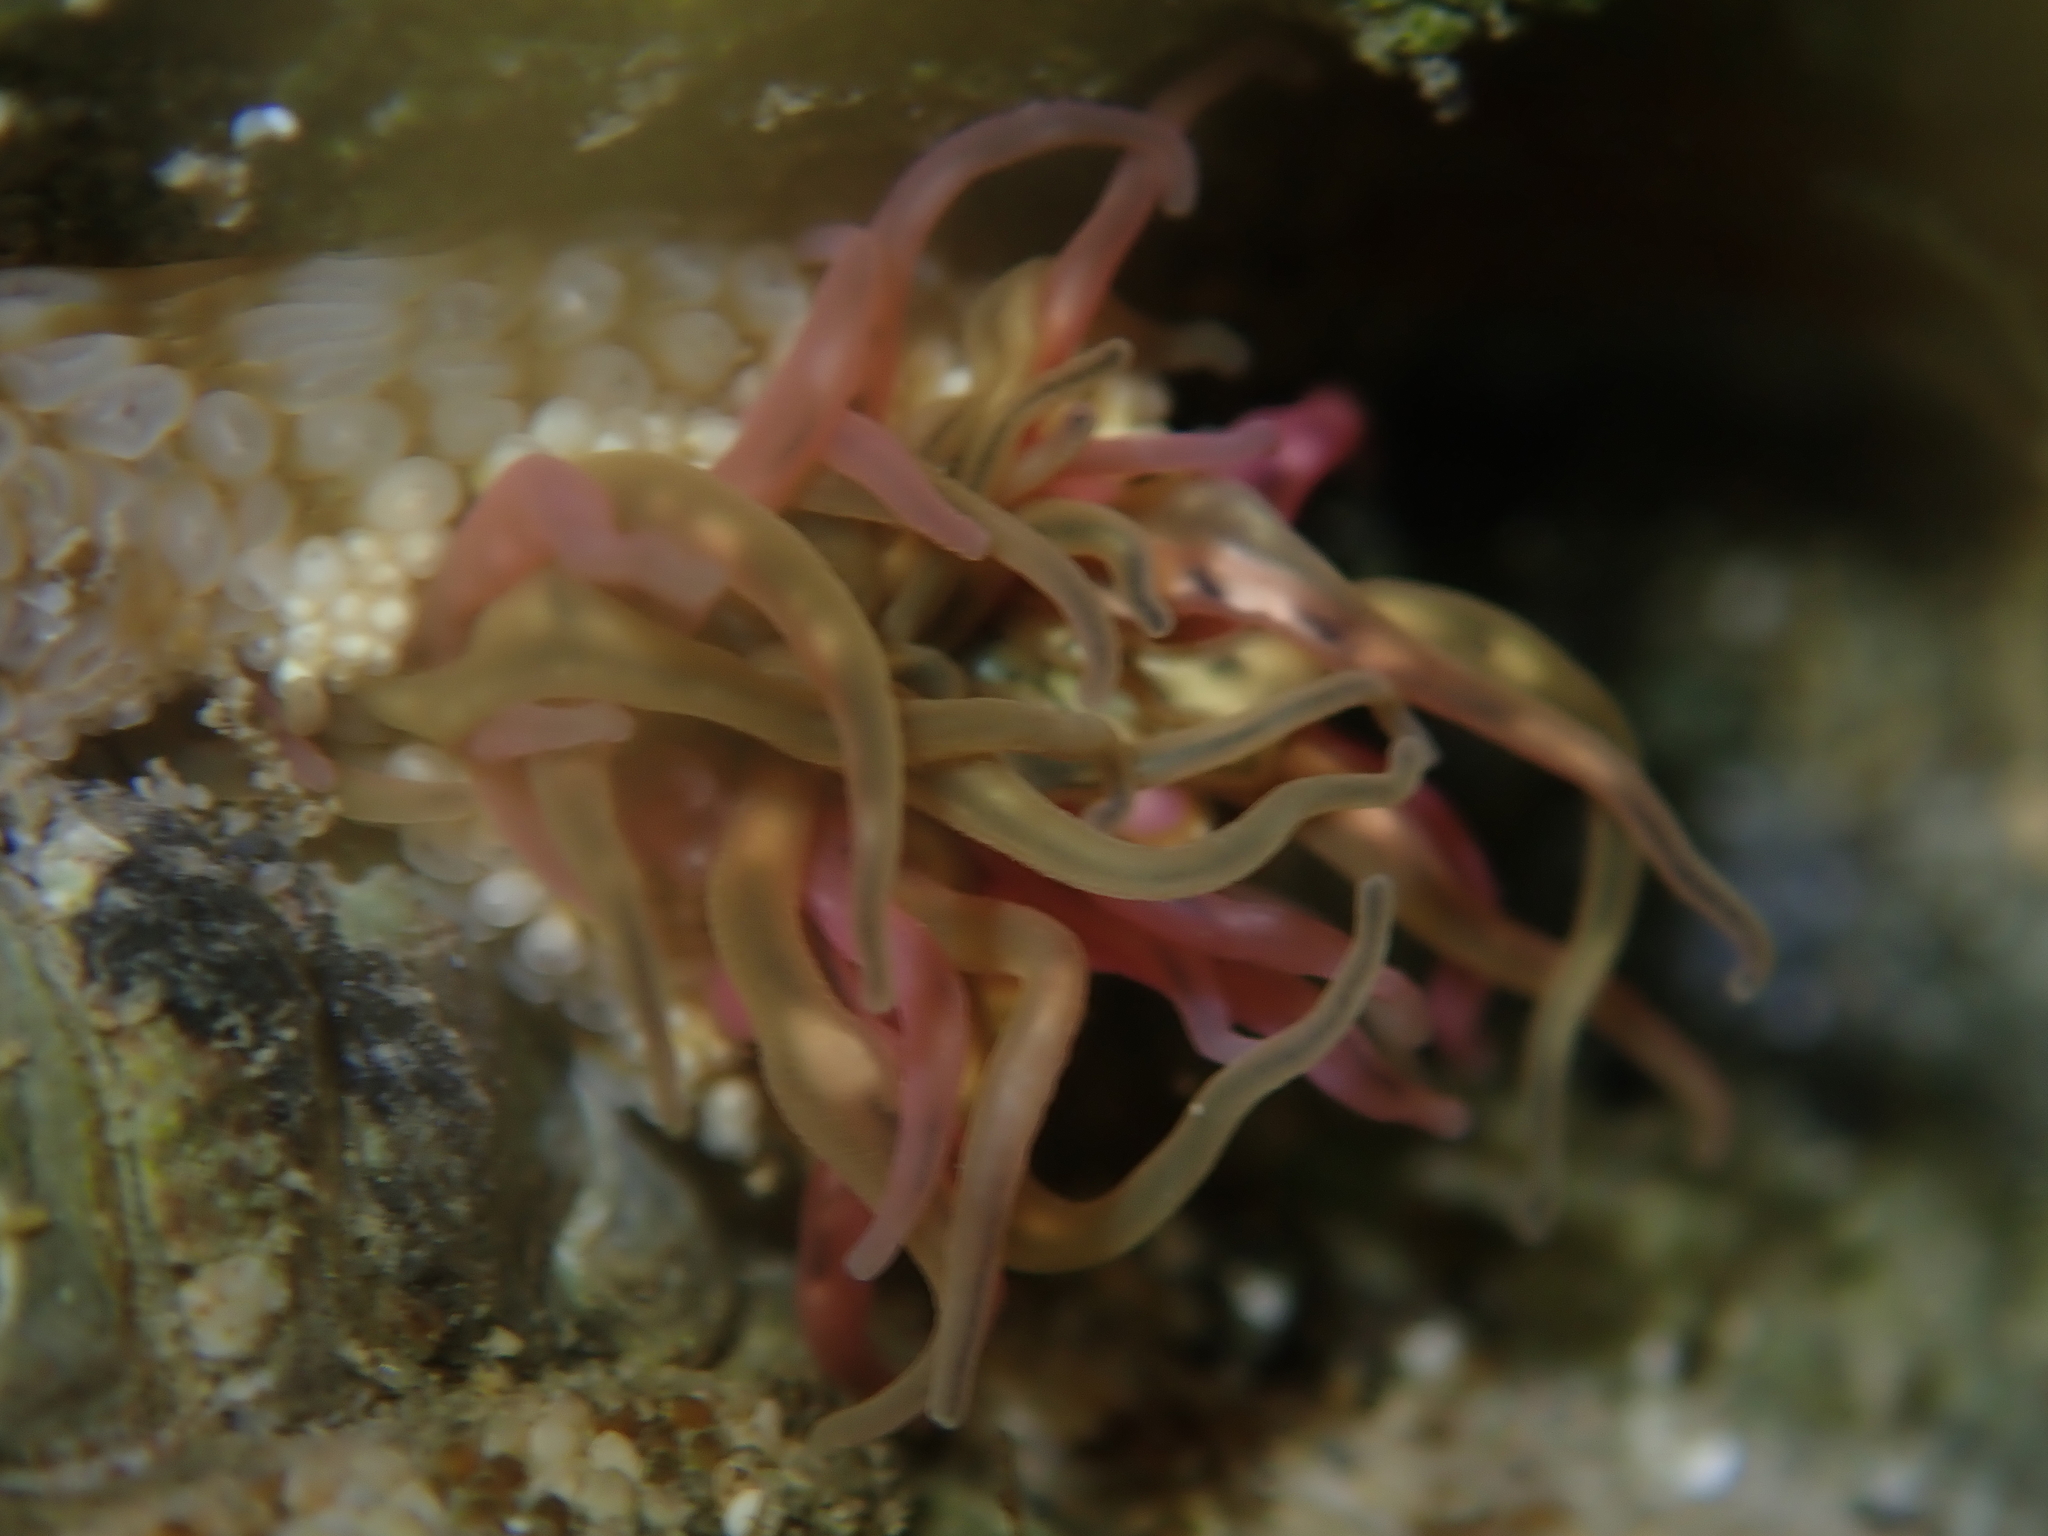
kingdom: Animalia
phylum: Cnidaria
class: Anthozoa
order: Actiniaria
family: Actiniidae
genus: Oulactis
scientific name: Oulactis muscosa
